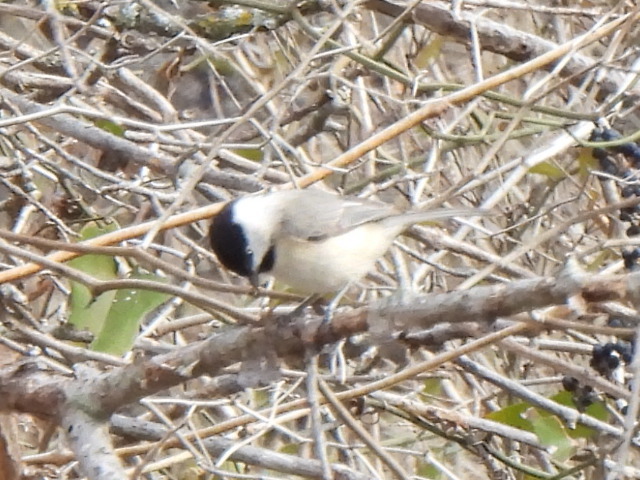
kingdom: Animalia
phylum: Chordata
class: Aves
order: Passeriformes
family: Paridae
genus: Poecile
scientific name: Poecile carolinensis
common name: Carolina chickadee
